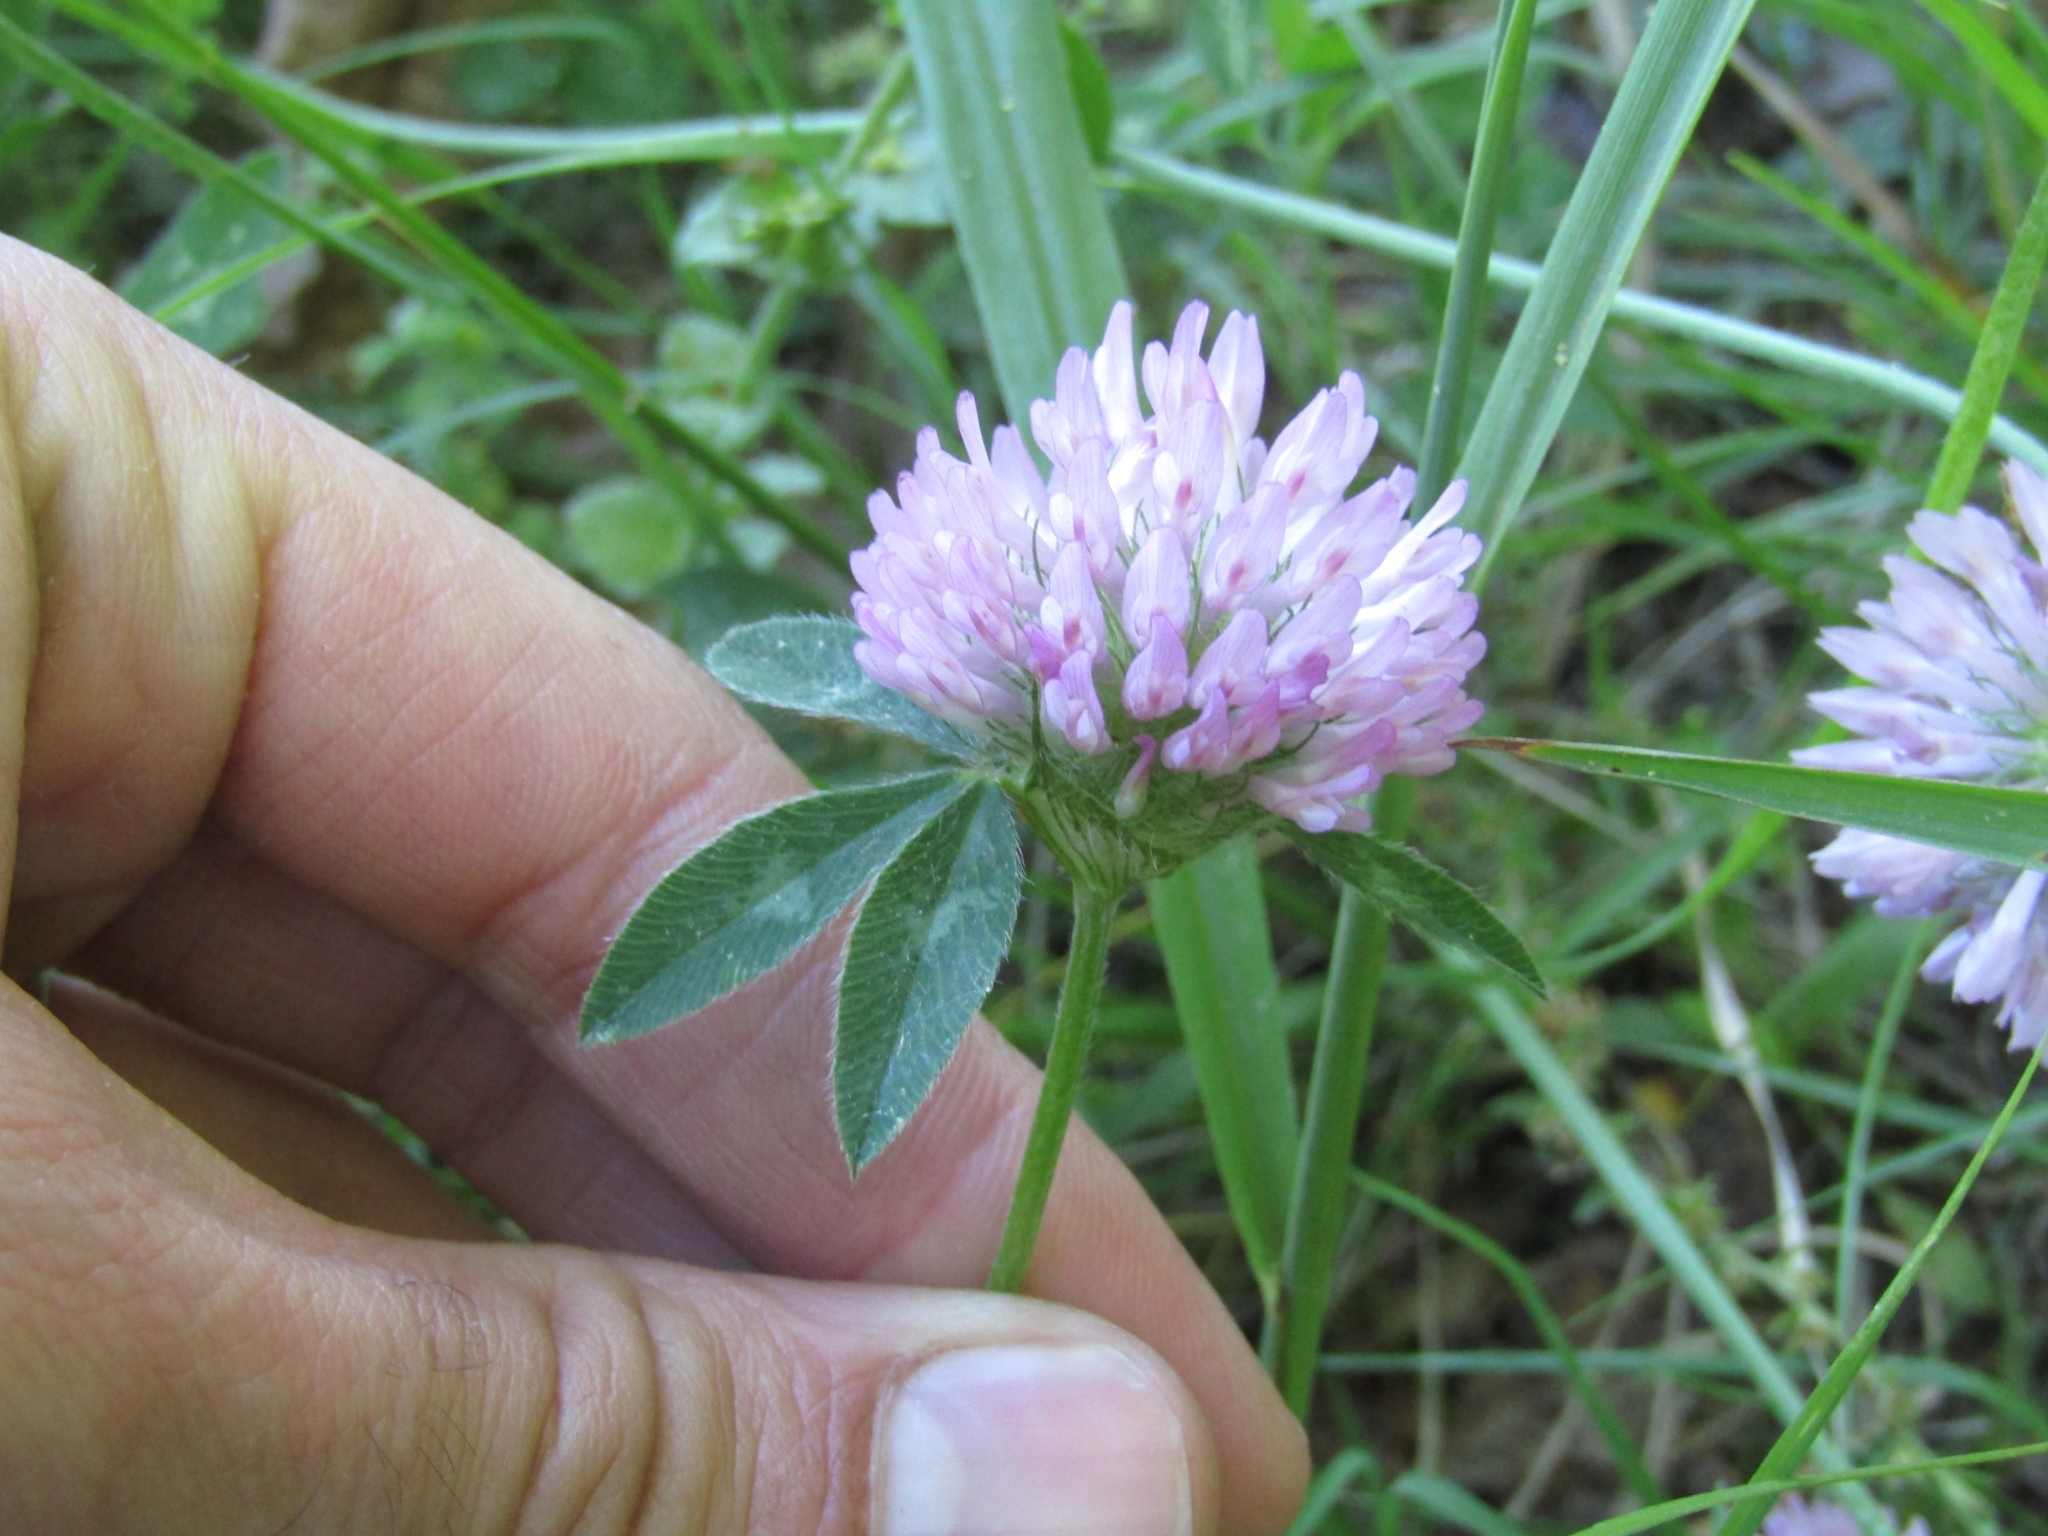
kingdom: Plantae
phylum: Tracheophyta
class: Magnoliopsida
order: Fabales
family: Fabaceae
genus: Trifolium
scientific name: Trifolium pratense
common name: Red clover
